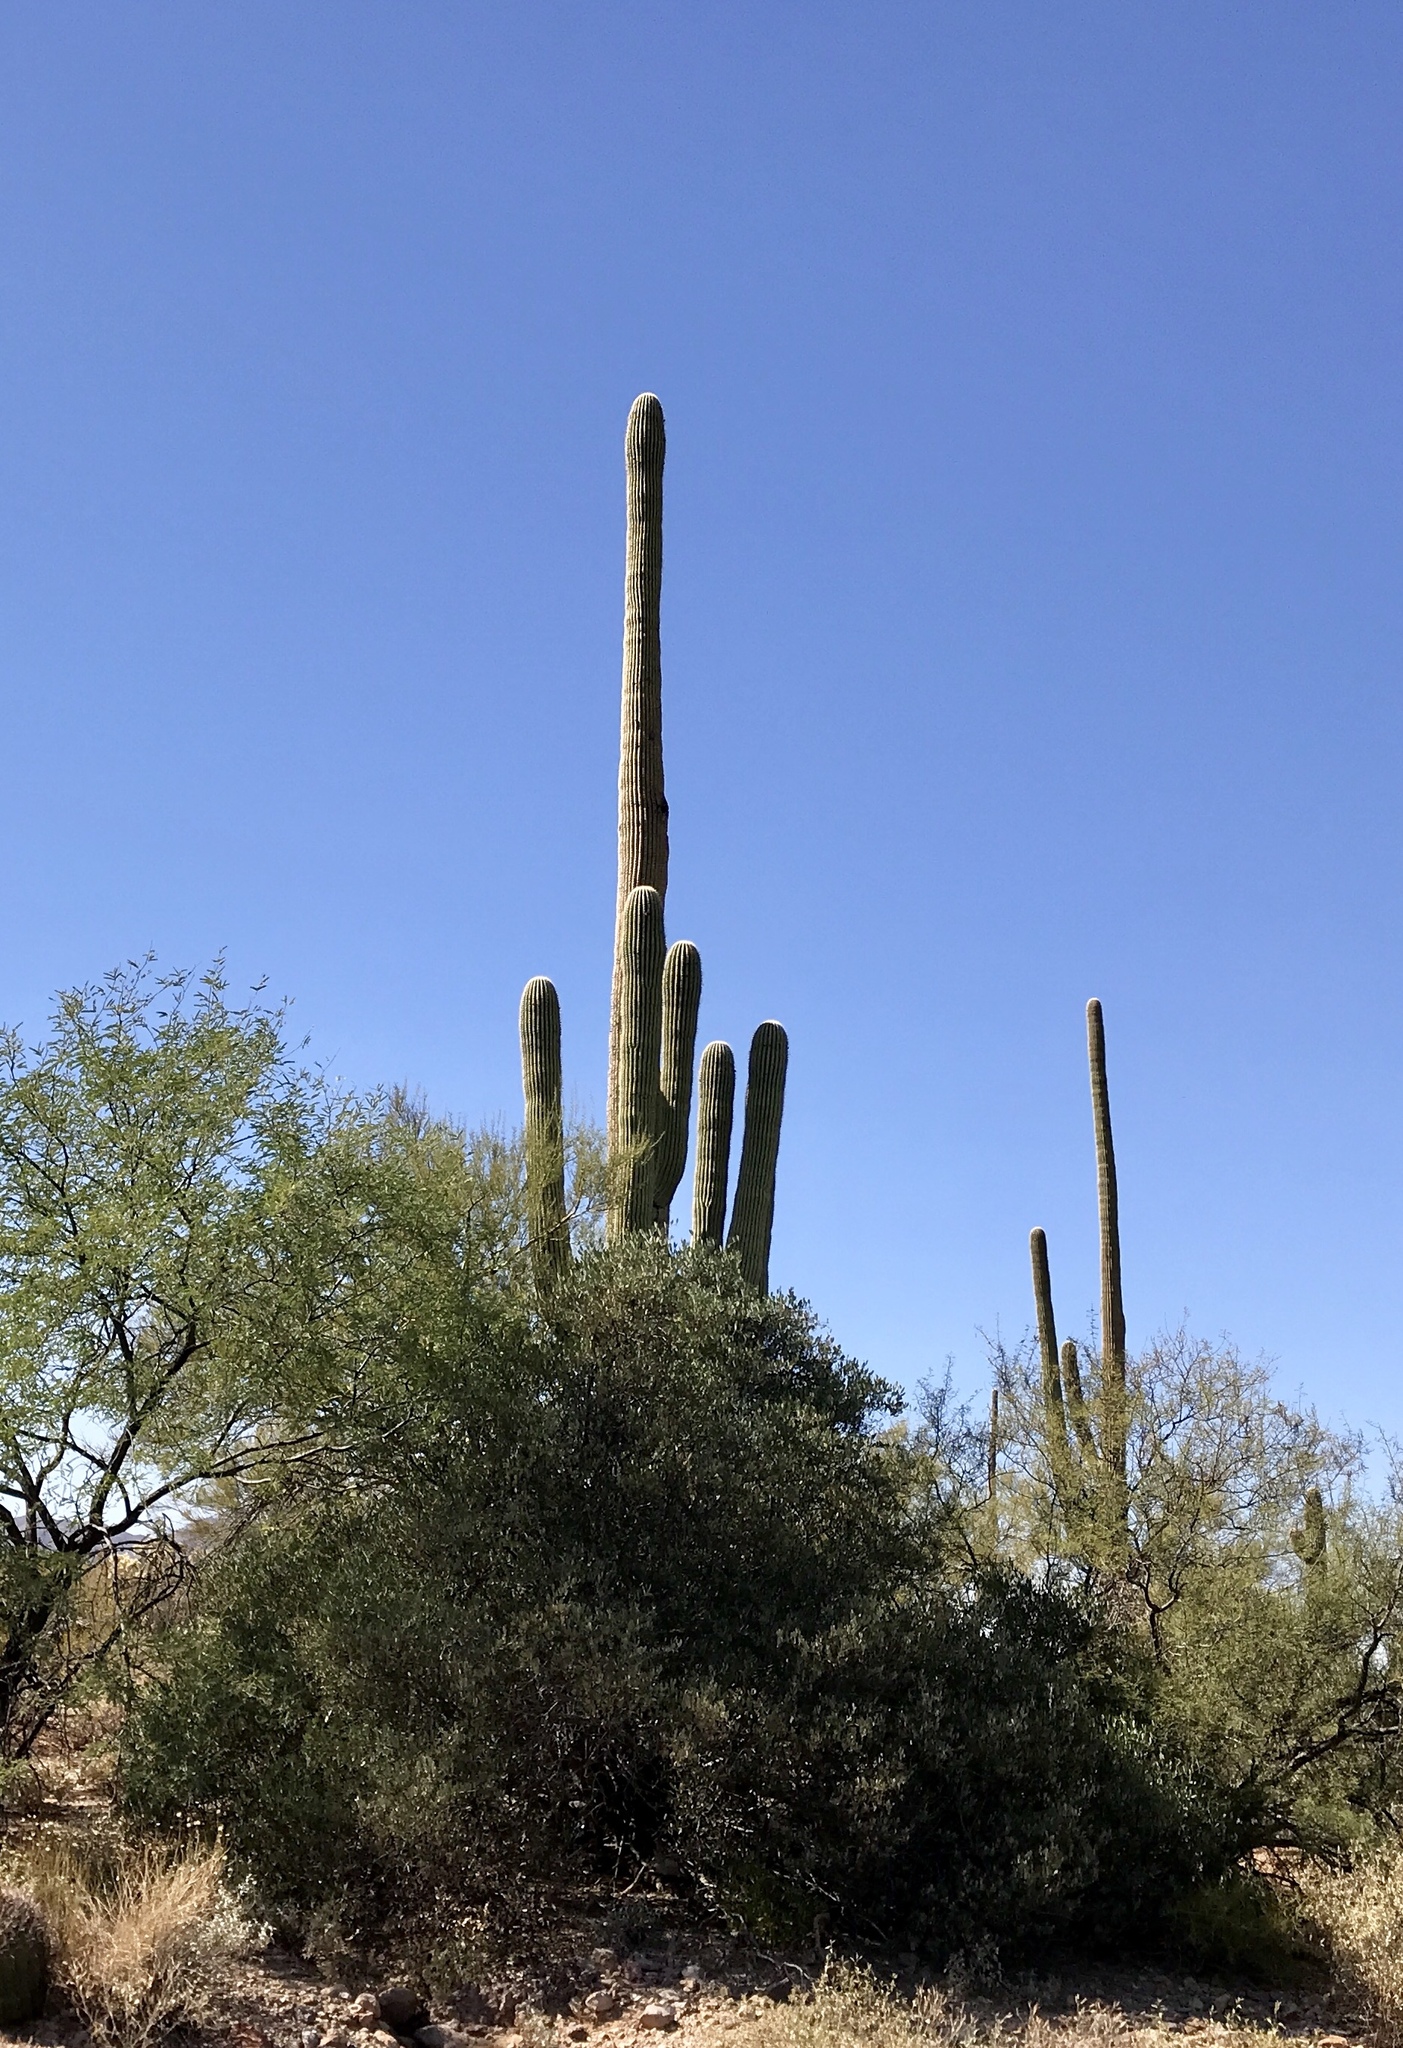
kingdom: Plantae
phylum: Tracheophyta
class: Magnoliopsida
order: Caryophyllales
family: Cactaceae
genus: Carnegiea
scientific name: Carnegiea gigantea
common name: Saguaro
